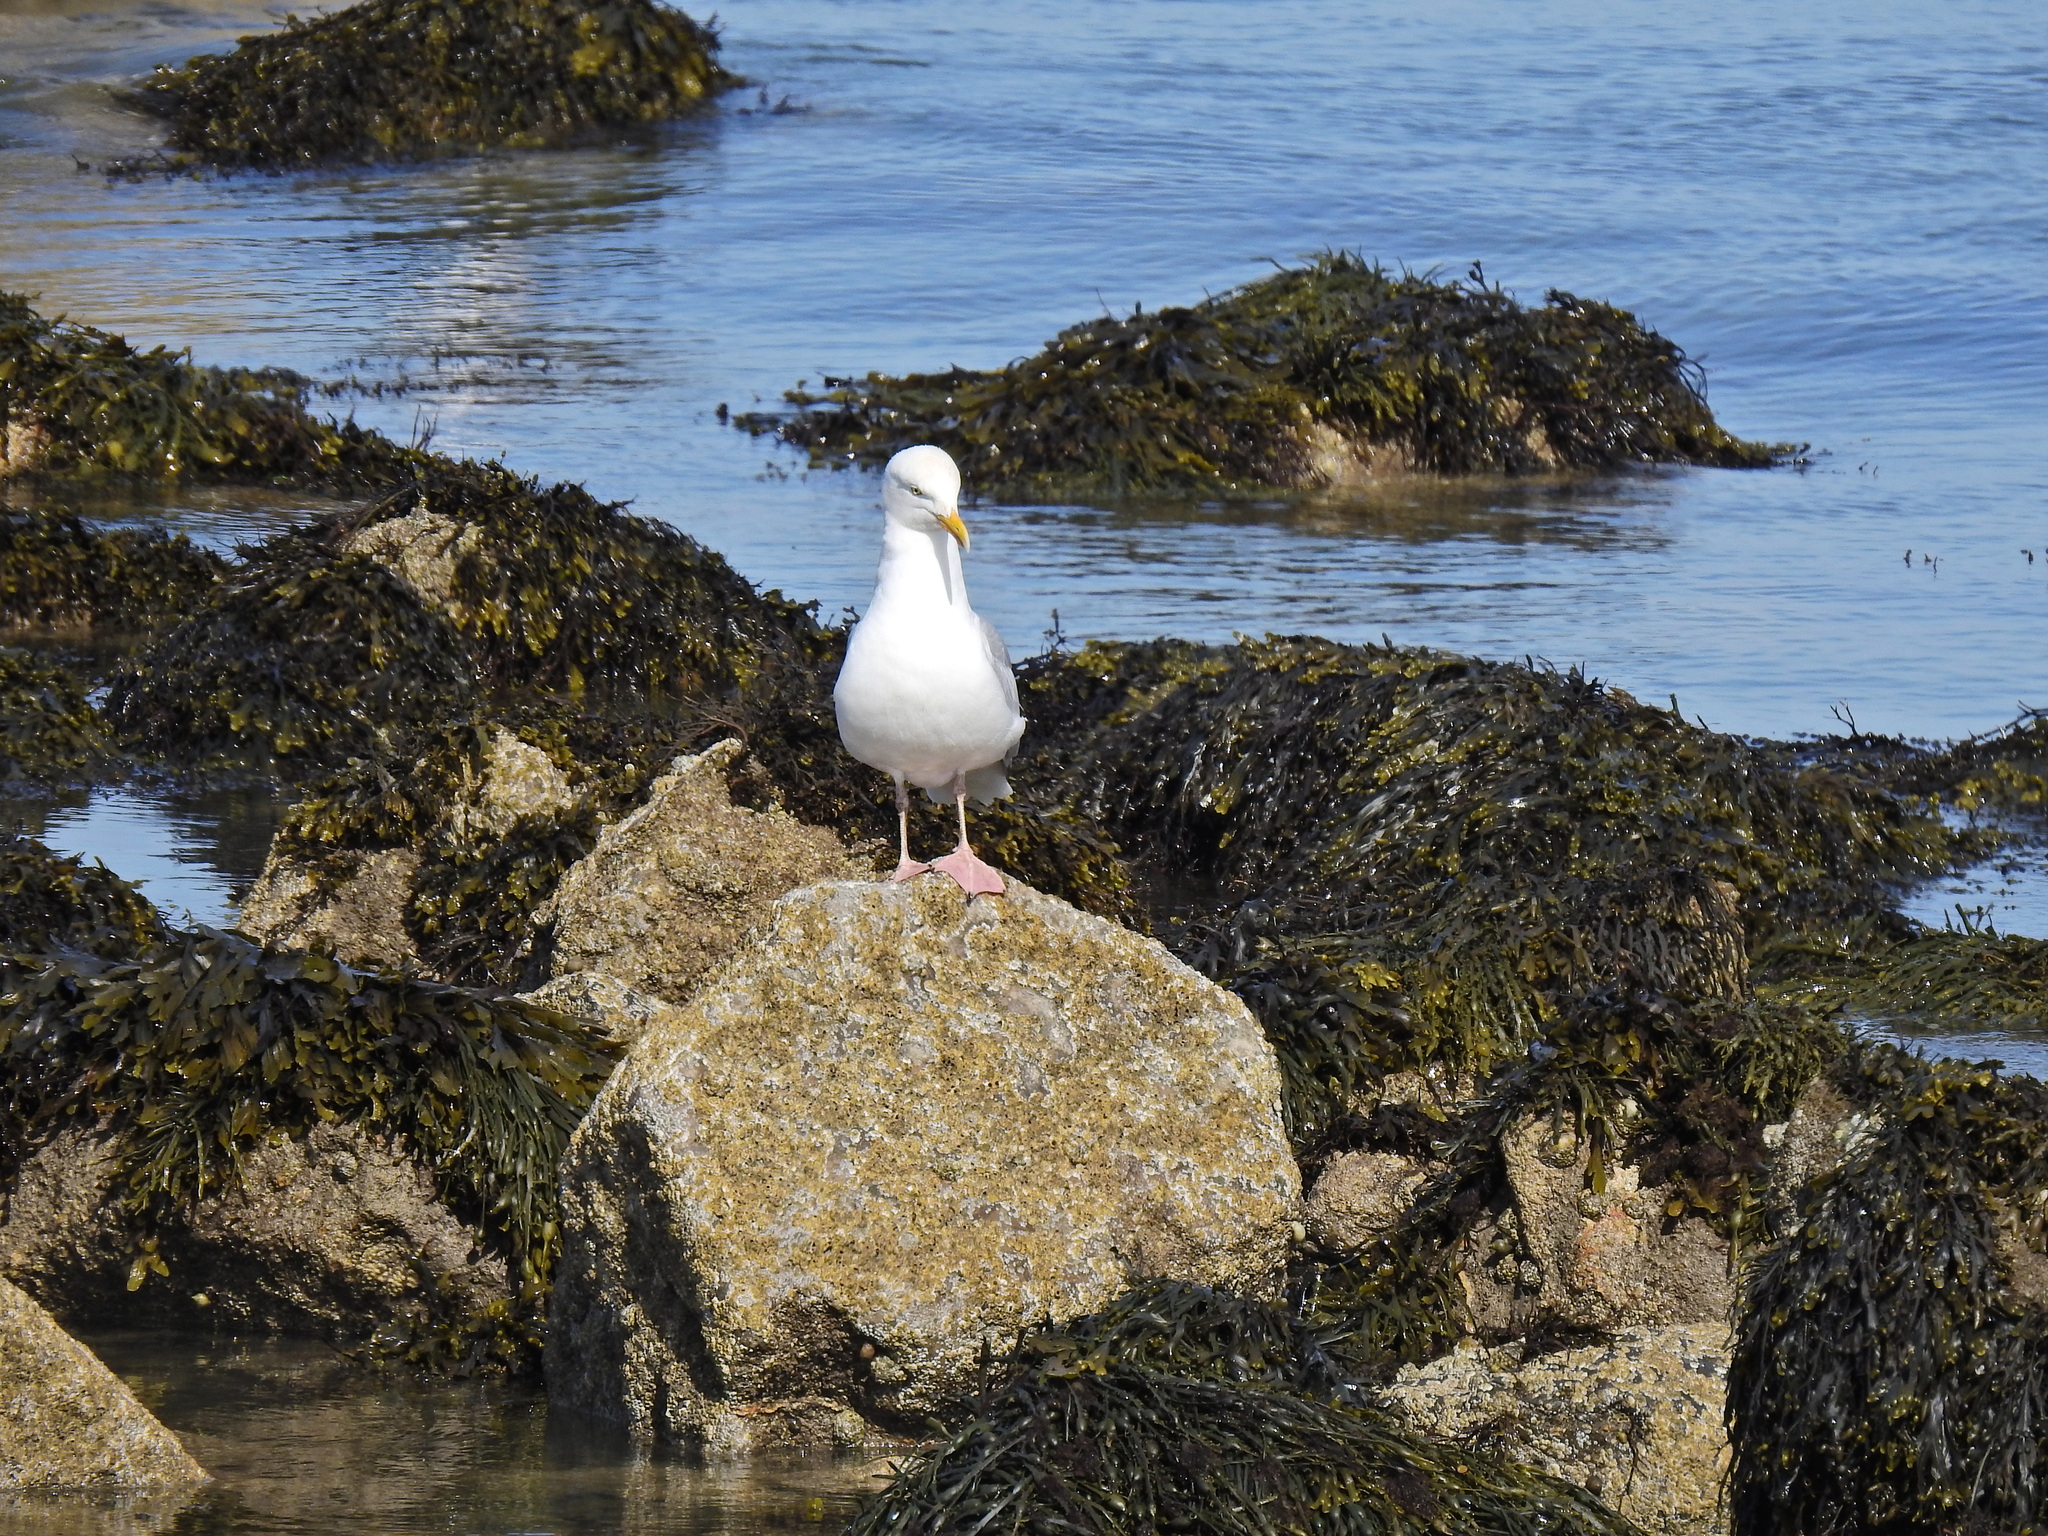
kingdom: Animalia
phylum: Chordata
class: Aves
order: Charadriiformes
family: Laridae
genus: Larus
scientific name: Larus argentatus
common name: Herring gull
